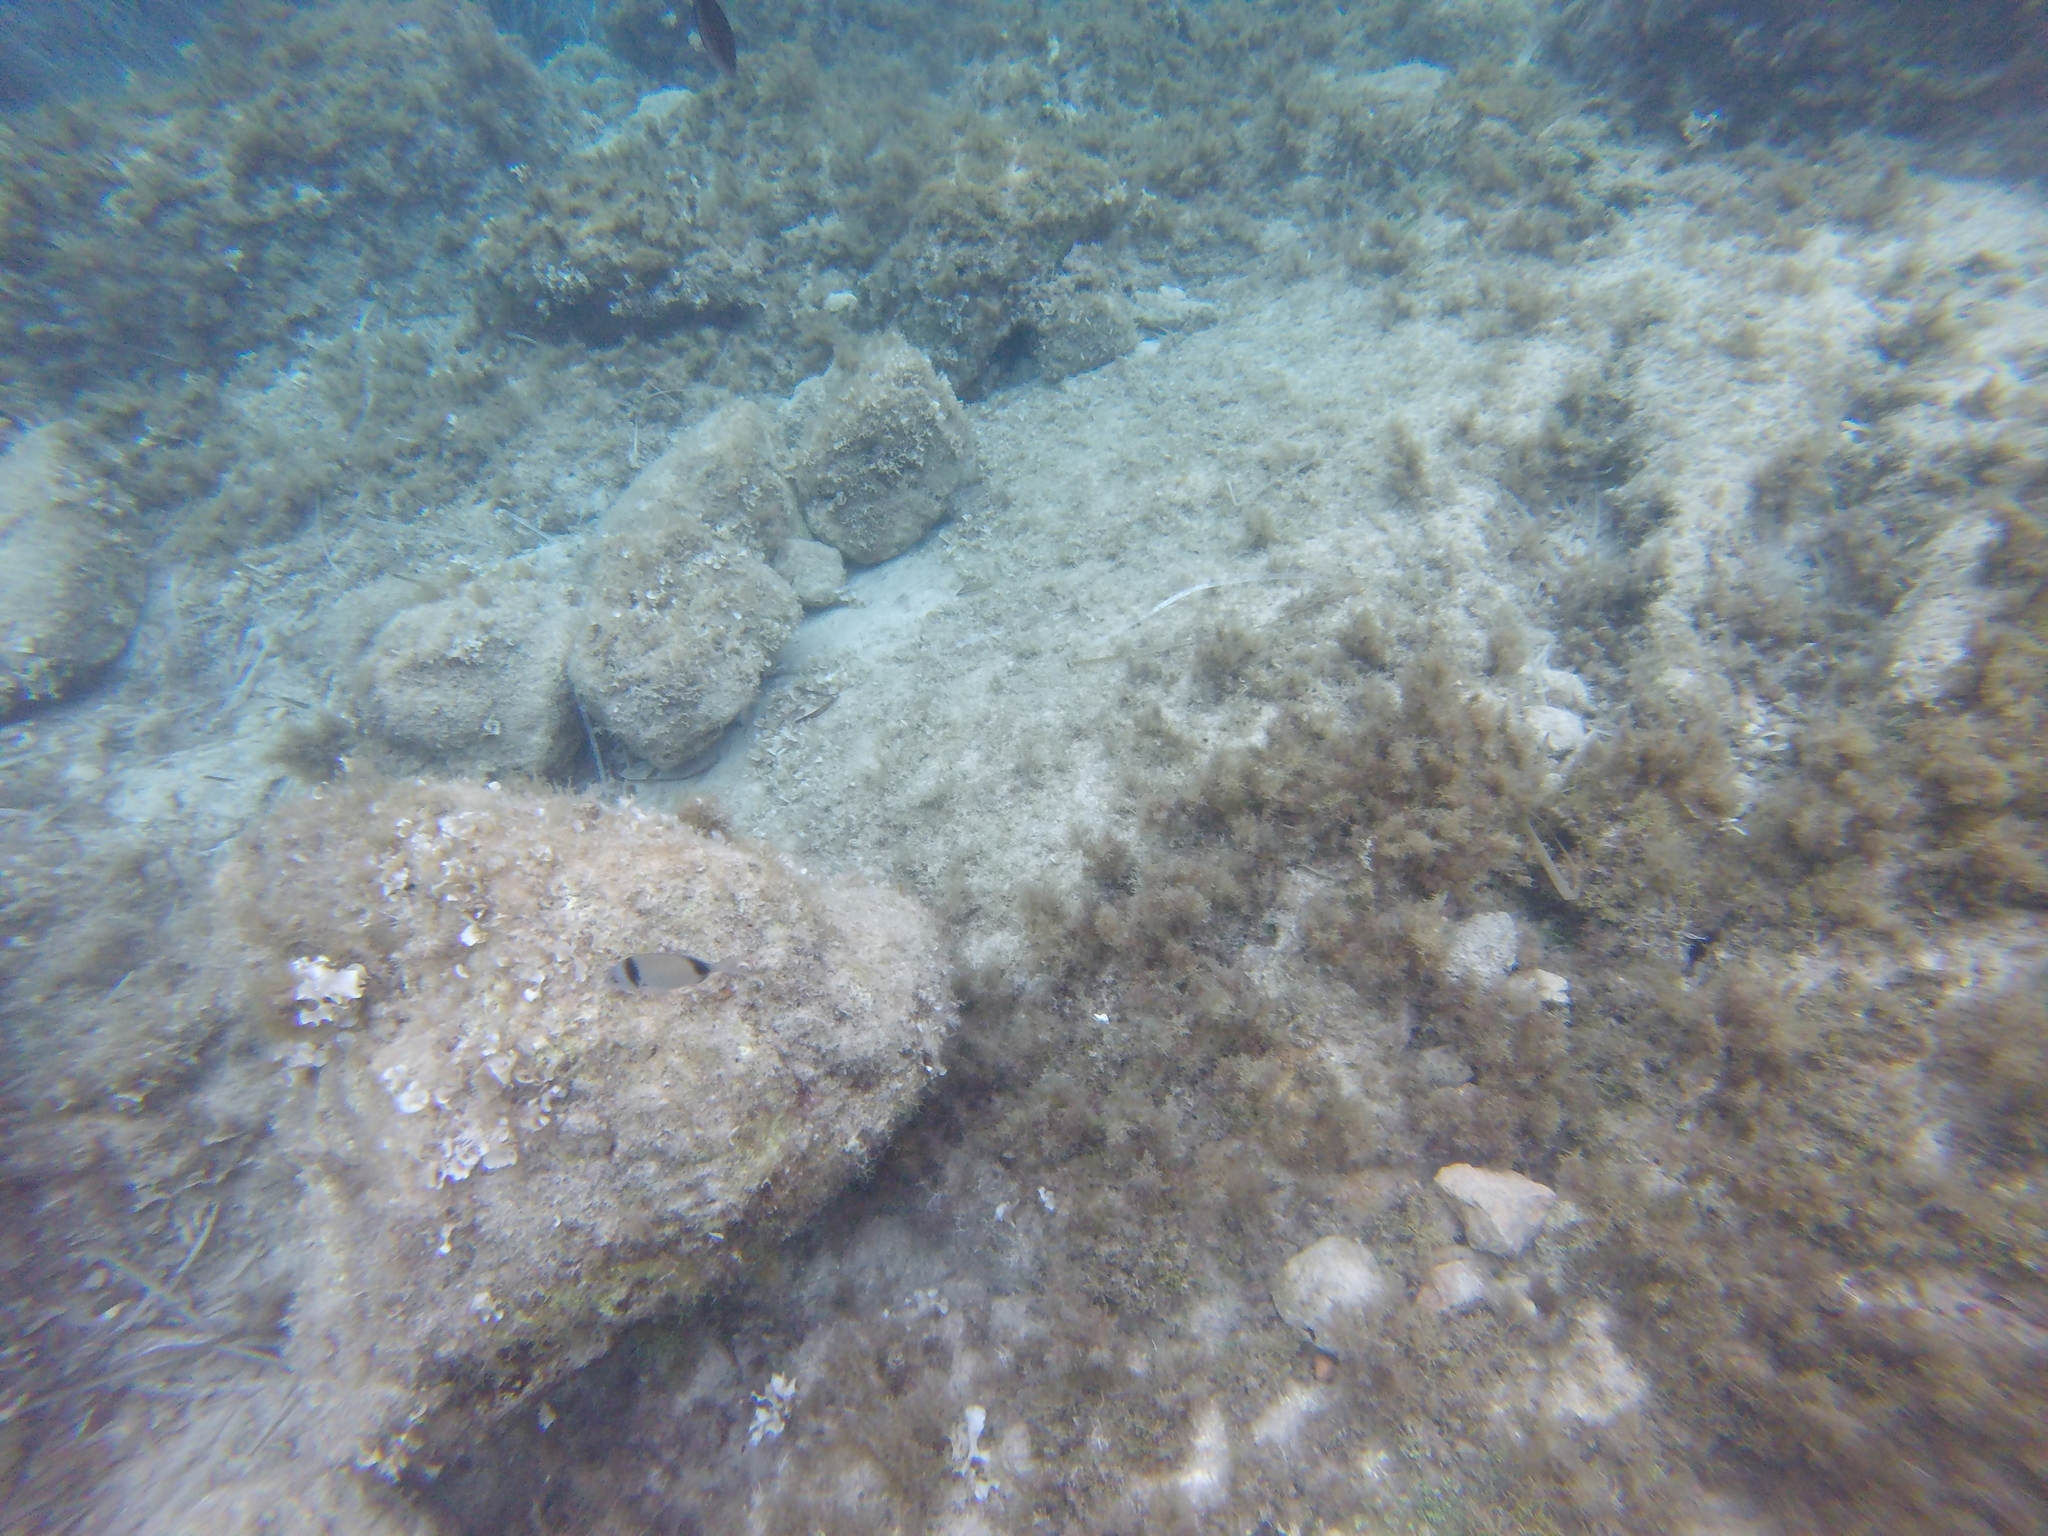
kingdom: Animalia
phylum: Chordata
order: Perciformes
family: Sparidae
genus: Diplodus
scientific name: Diplodus vulgaris
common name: Common two-banded seabream
